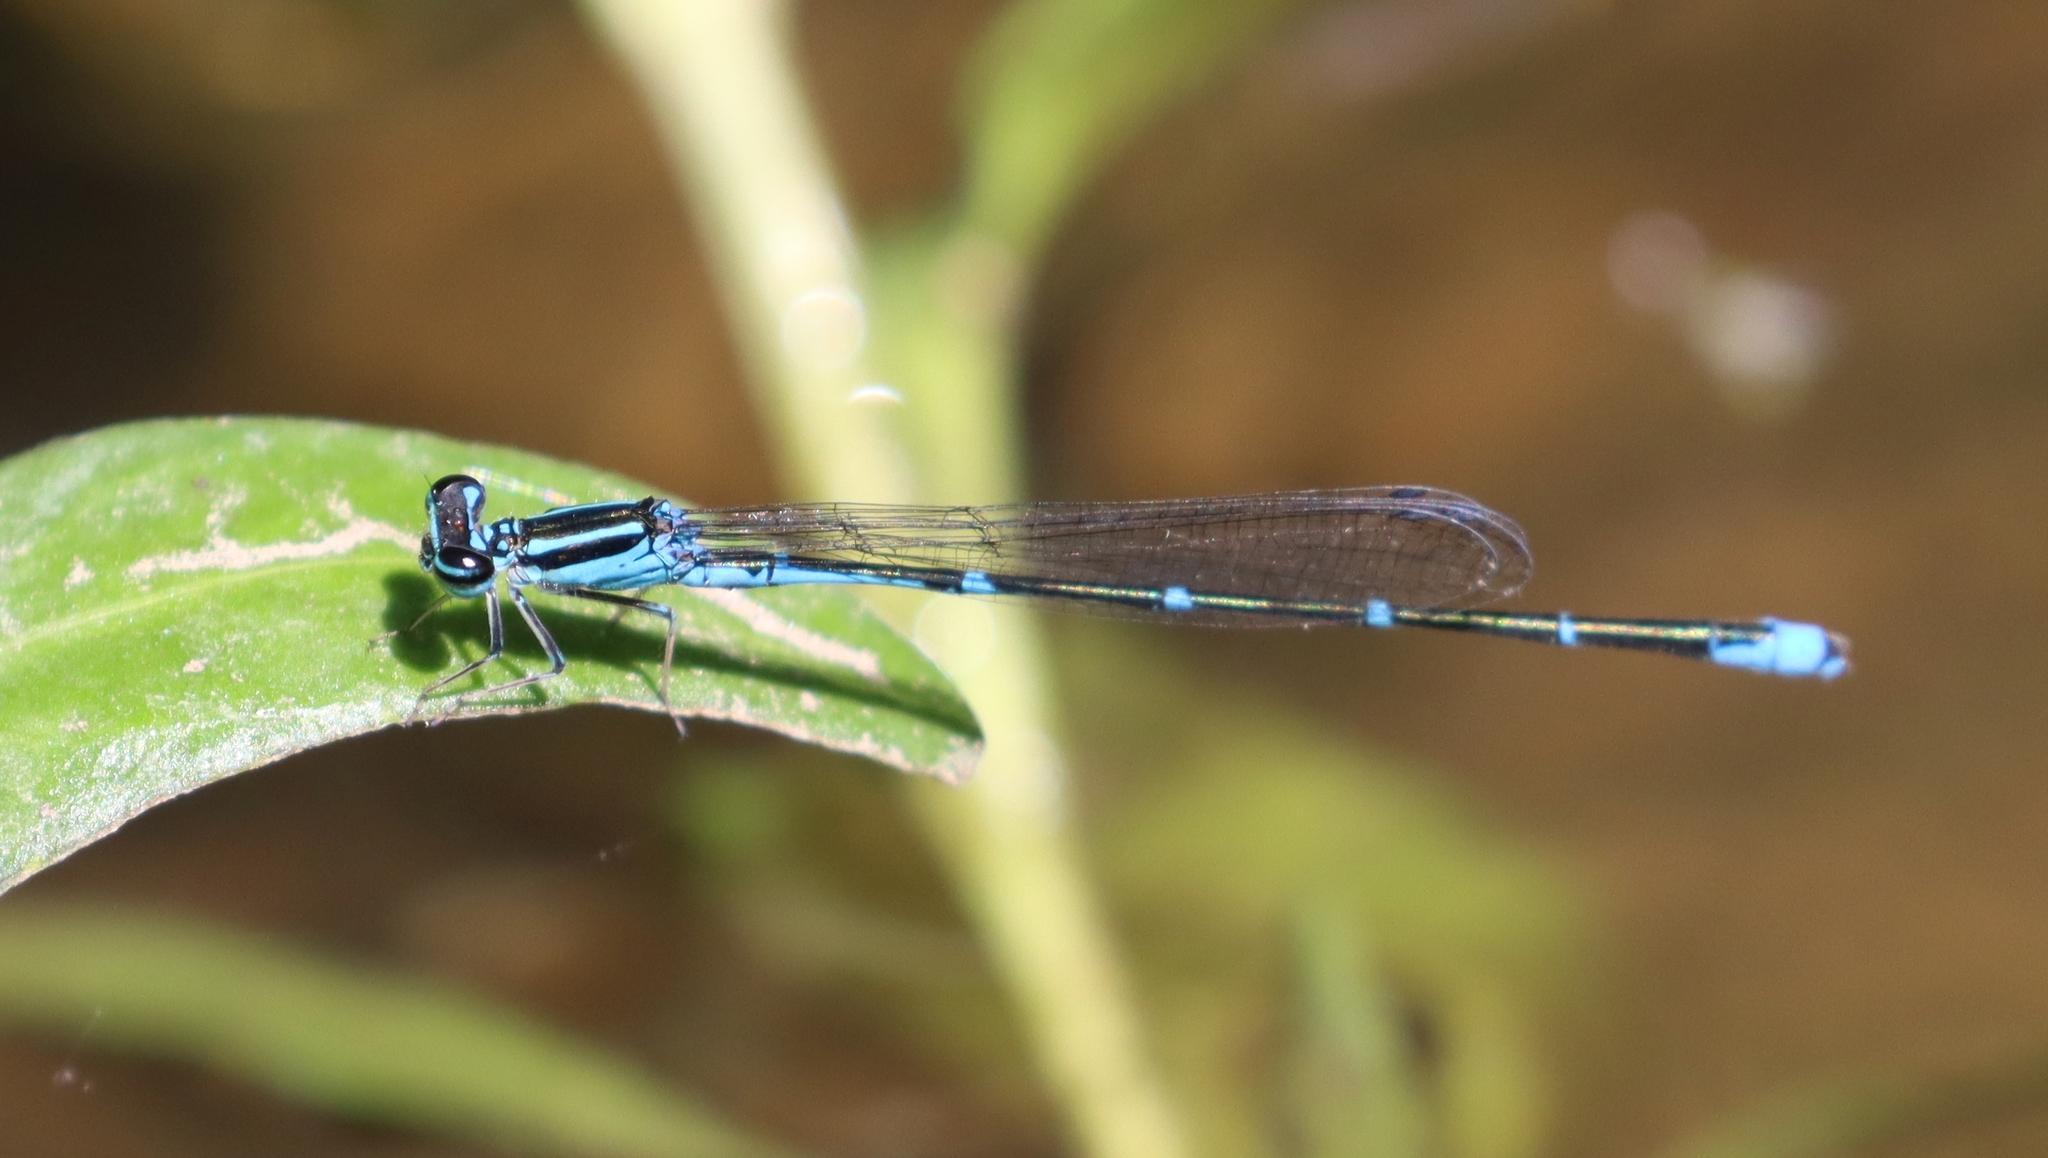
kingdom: Animalia
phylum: Arthropoda
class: Insecta
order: Odonata
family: Coenagrionidae
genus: Enallagma
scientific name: Enallagma exsulans
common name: Stream bluet
